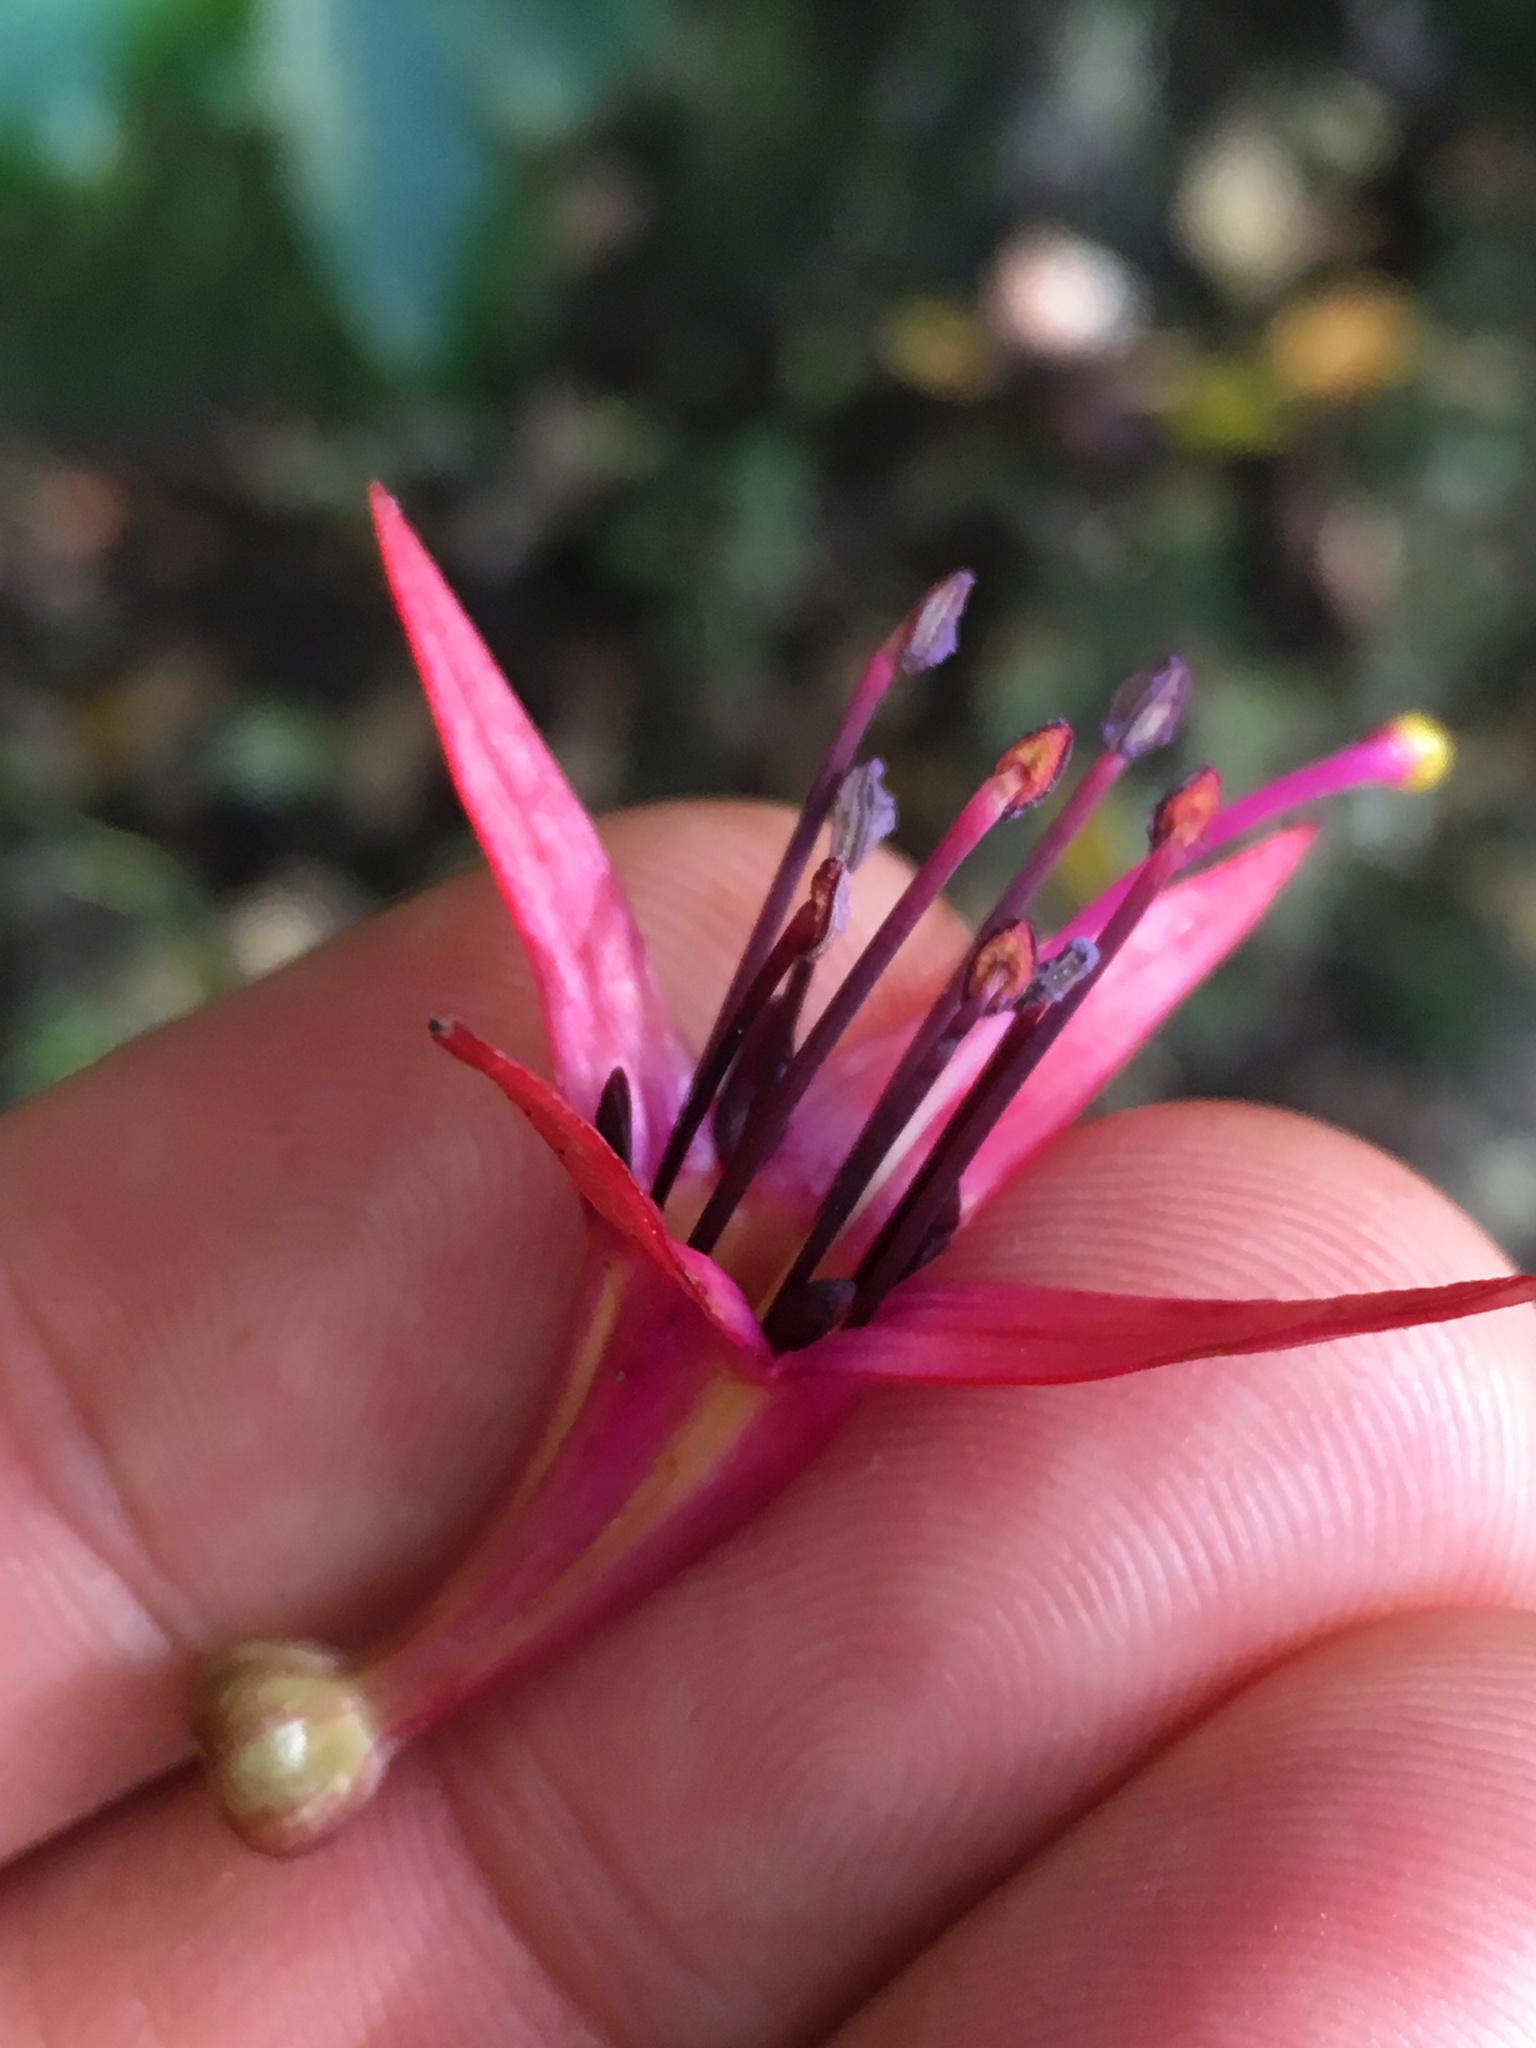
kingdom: Plantae
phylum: Tracheophyta
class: Magnoliopsida
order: Myrtales
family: Onagraceae
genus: Fuchsia
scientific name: Fuchsia excorticata
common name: Tree fuchsia
